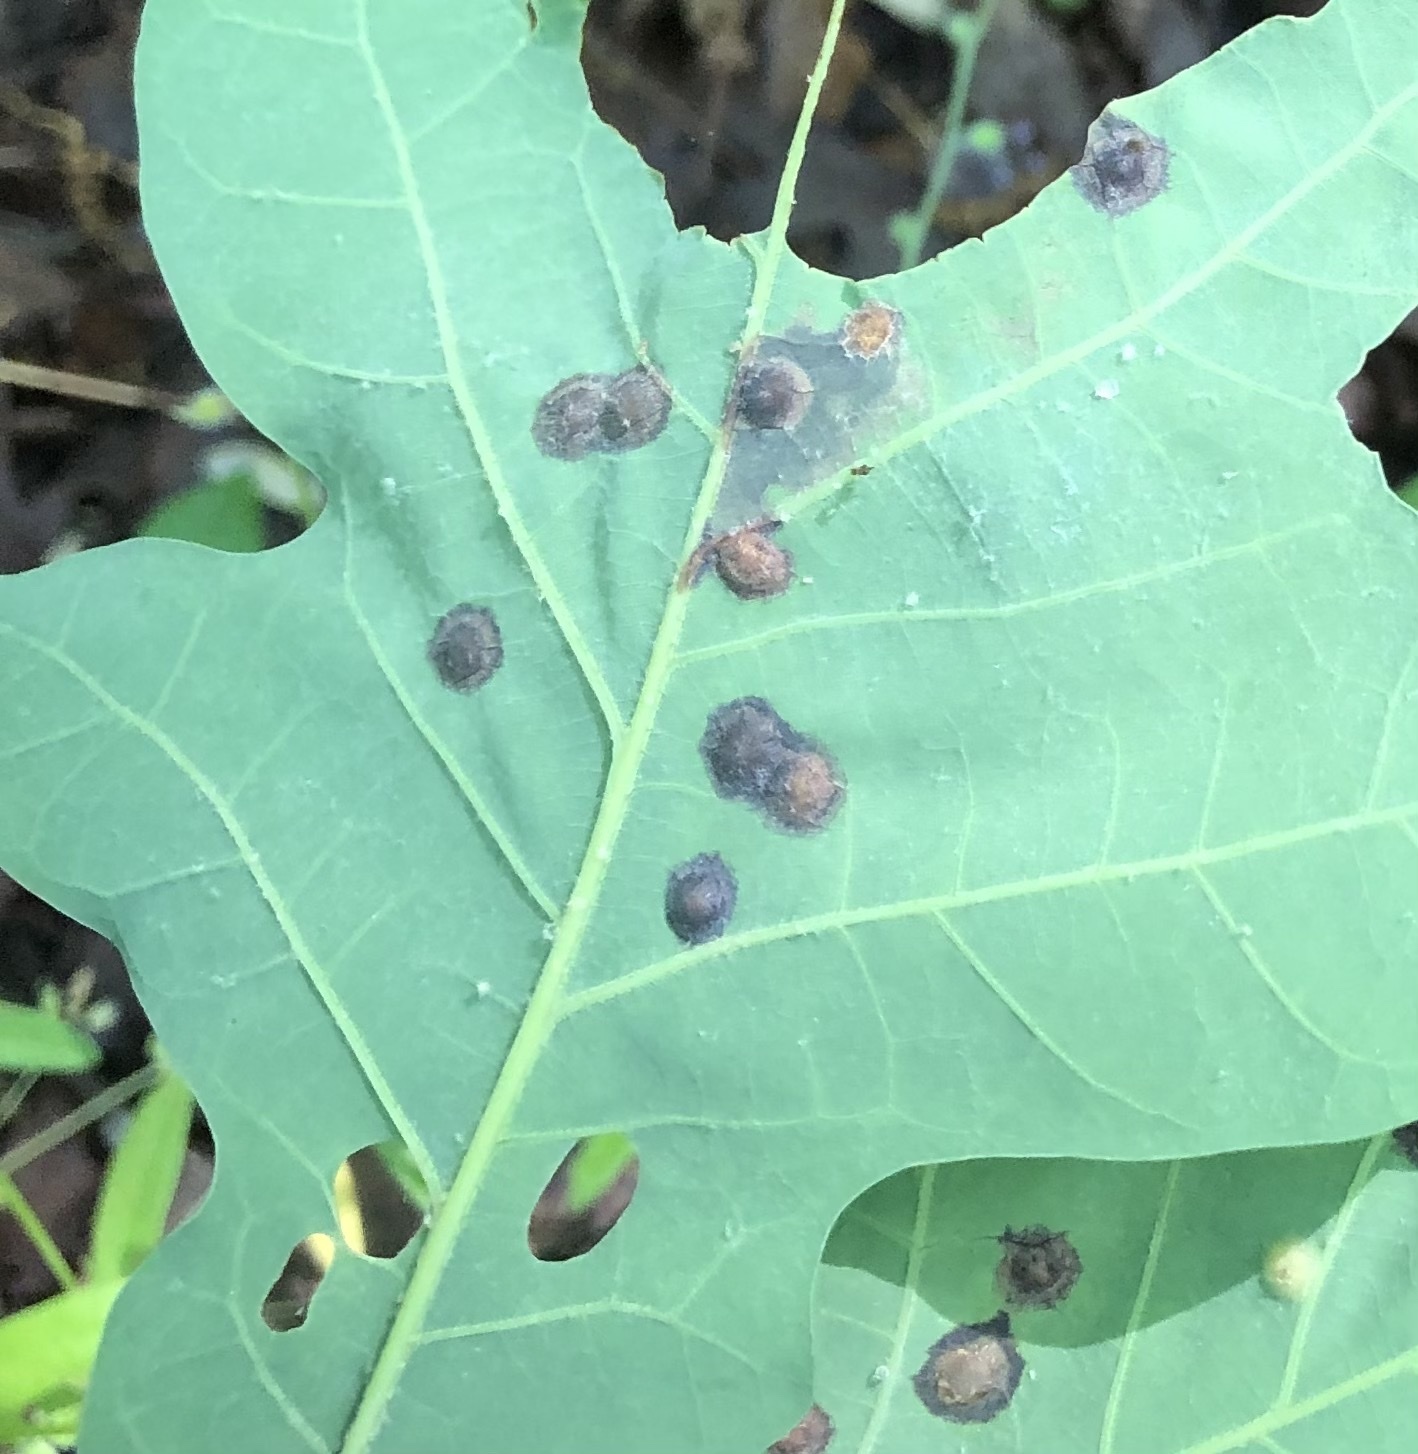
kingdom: Animalia
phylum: Arthropoda
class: Insecta
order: Hymenoptera
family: Cynipidae
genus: Callirhytis
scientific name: Callirhytis
